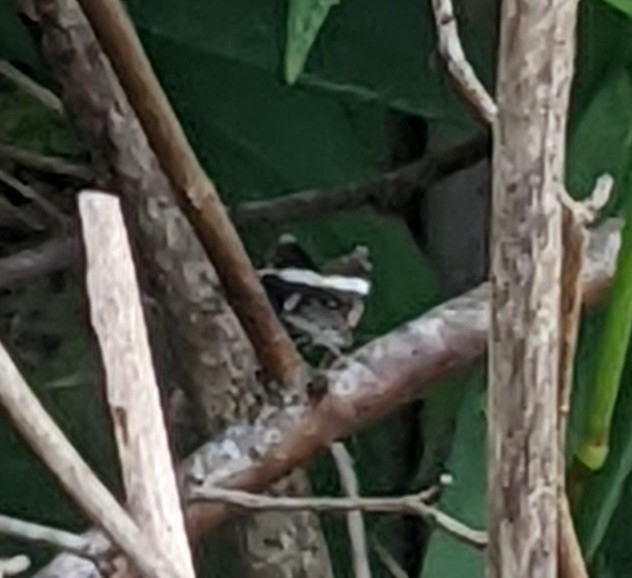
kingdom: Animalia
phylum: Arthropoda
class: Insecta
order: Lepidoptera
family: Geometridae
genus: Trichodezia
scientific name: Trichodezia albovittata
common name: White striped black
